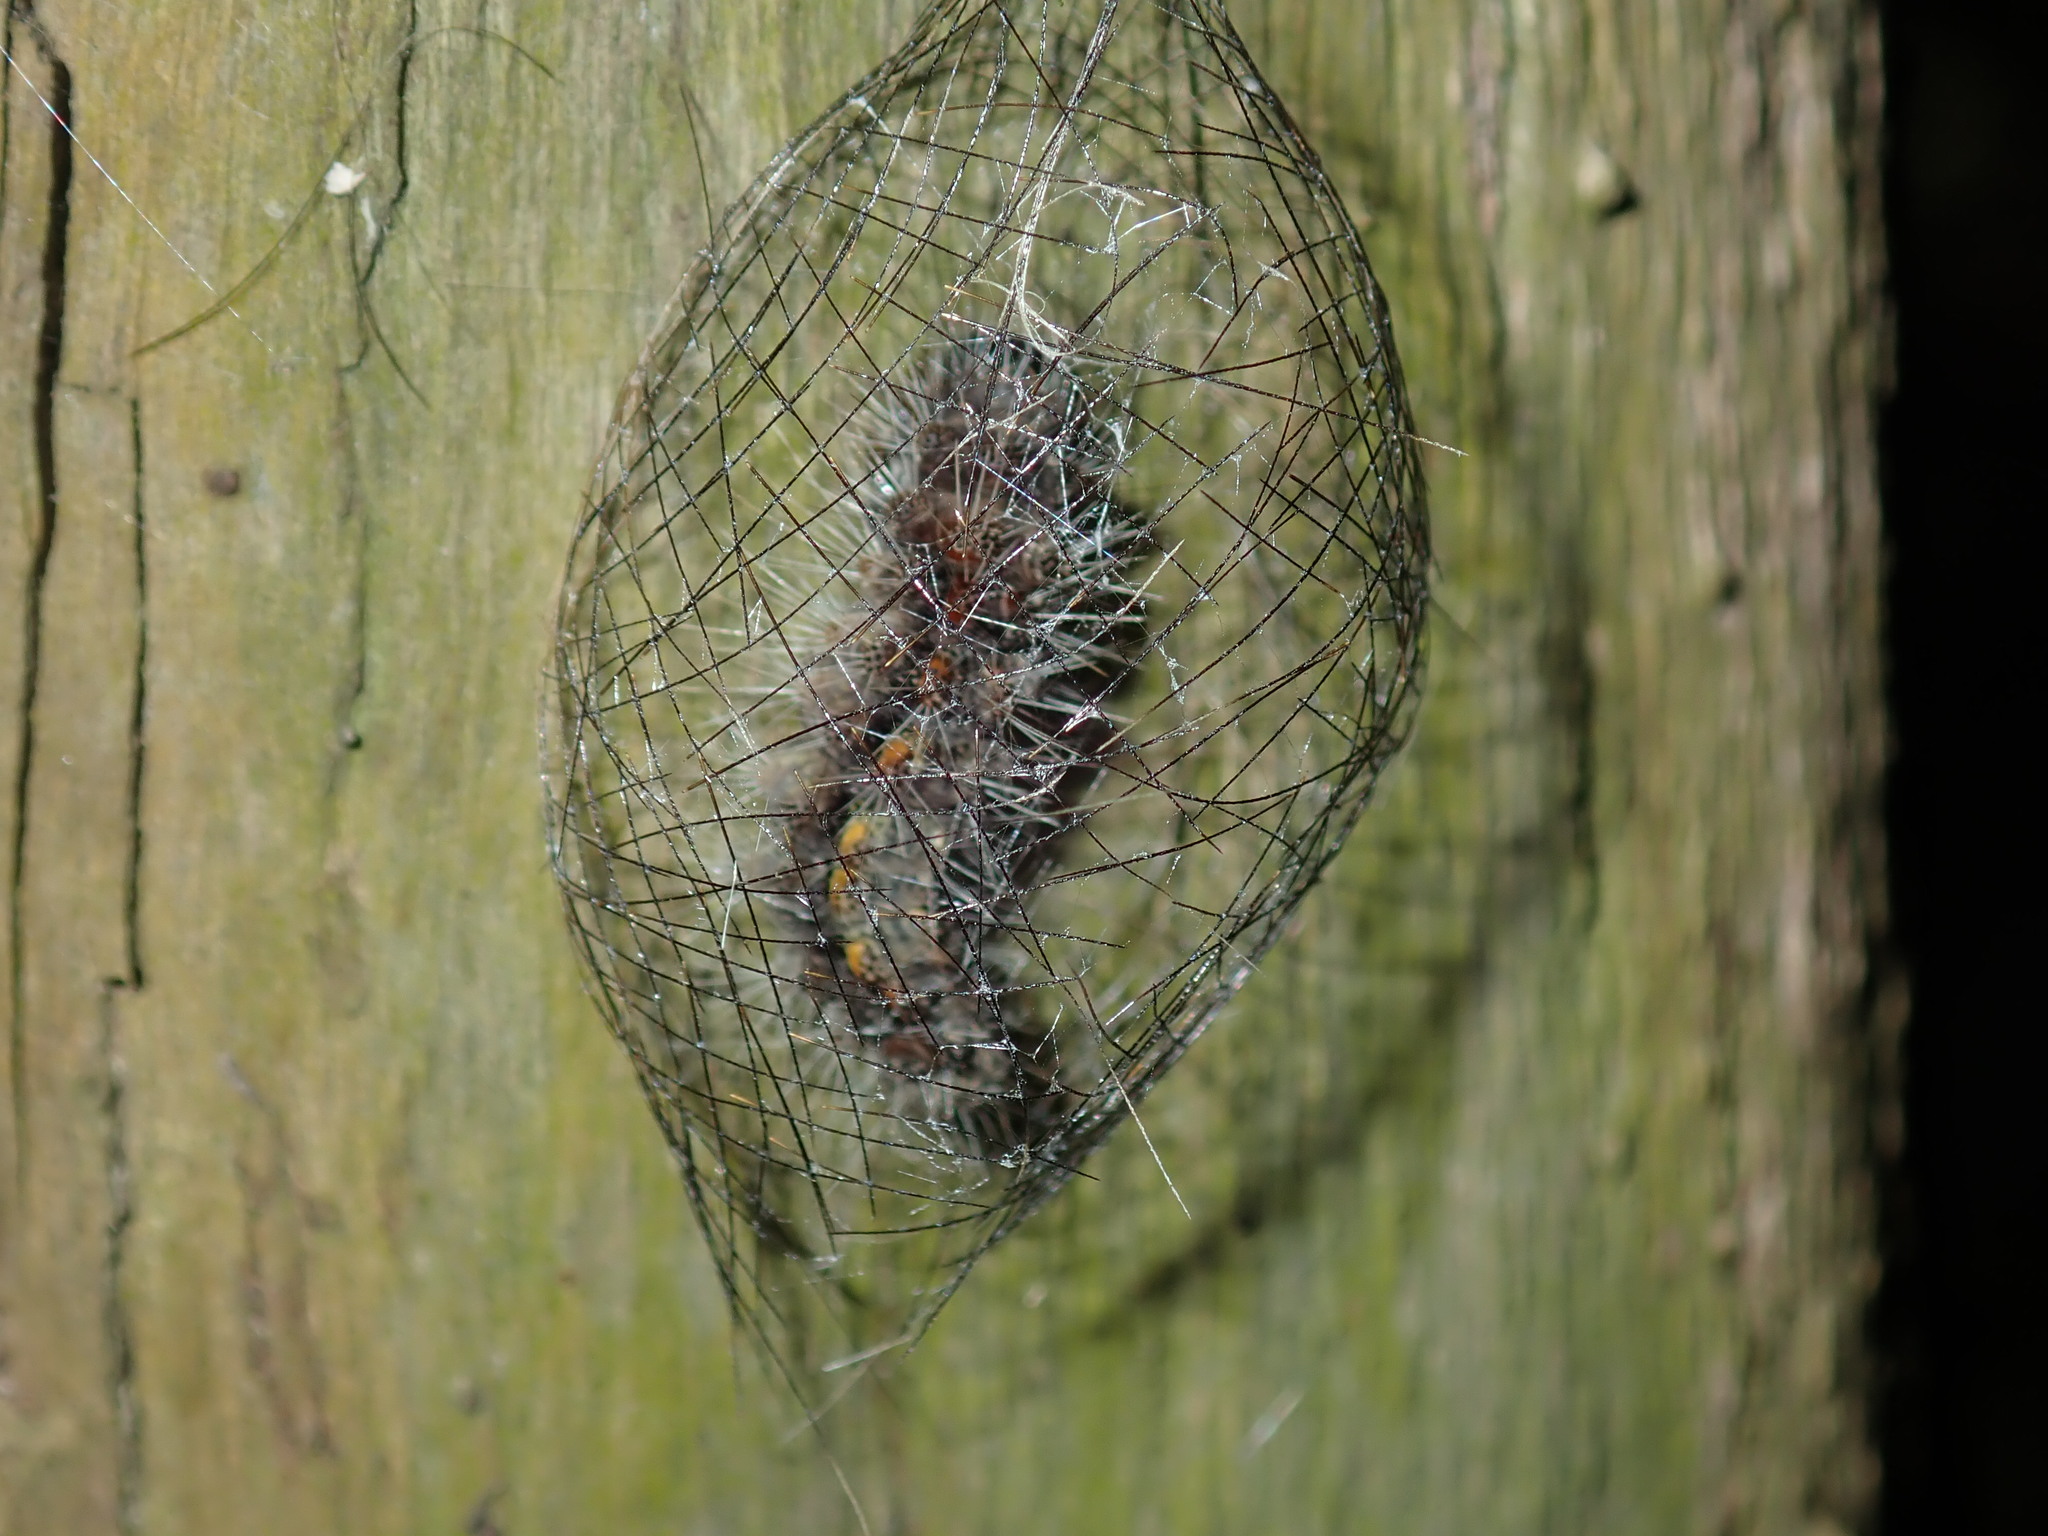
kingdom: Animalia
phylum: Arthropoda
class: Insecta
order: Lepidoptera
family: Erebidae
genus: Cyana
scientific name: Cyana meyricki
